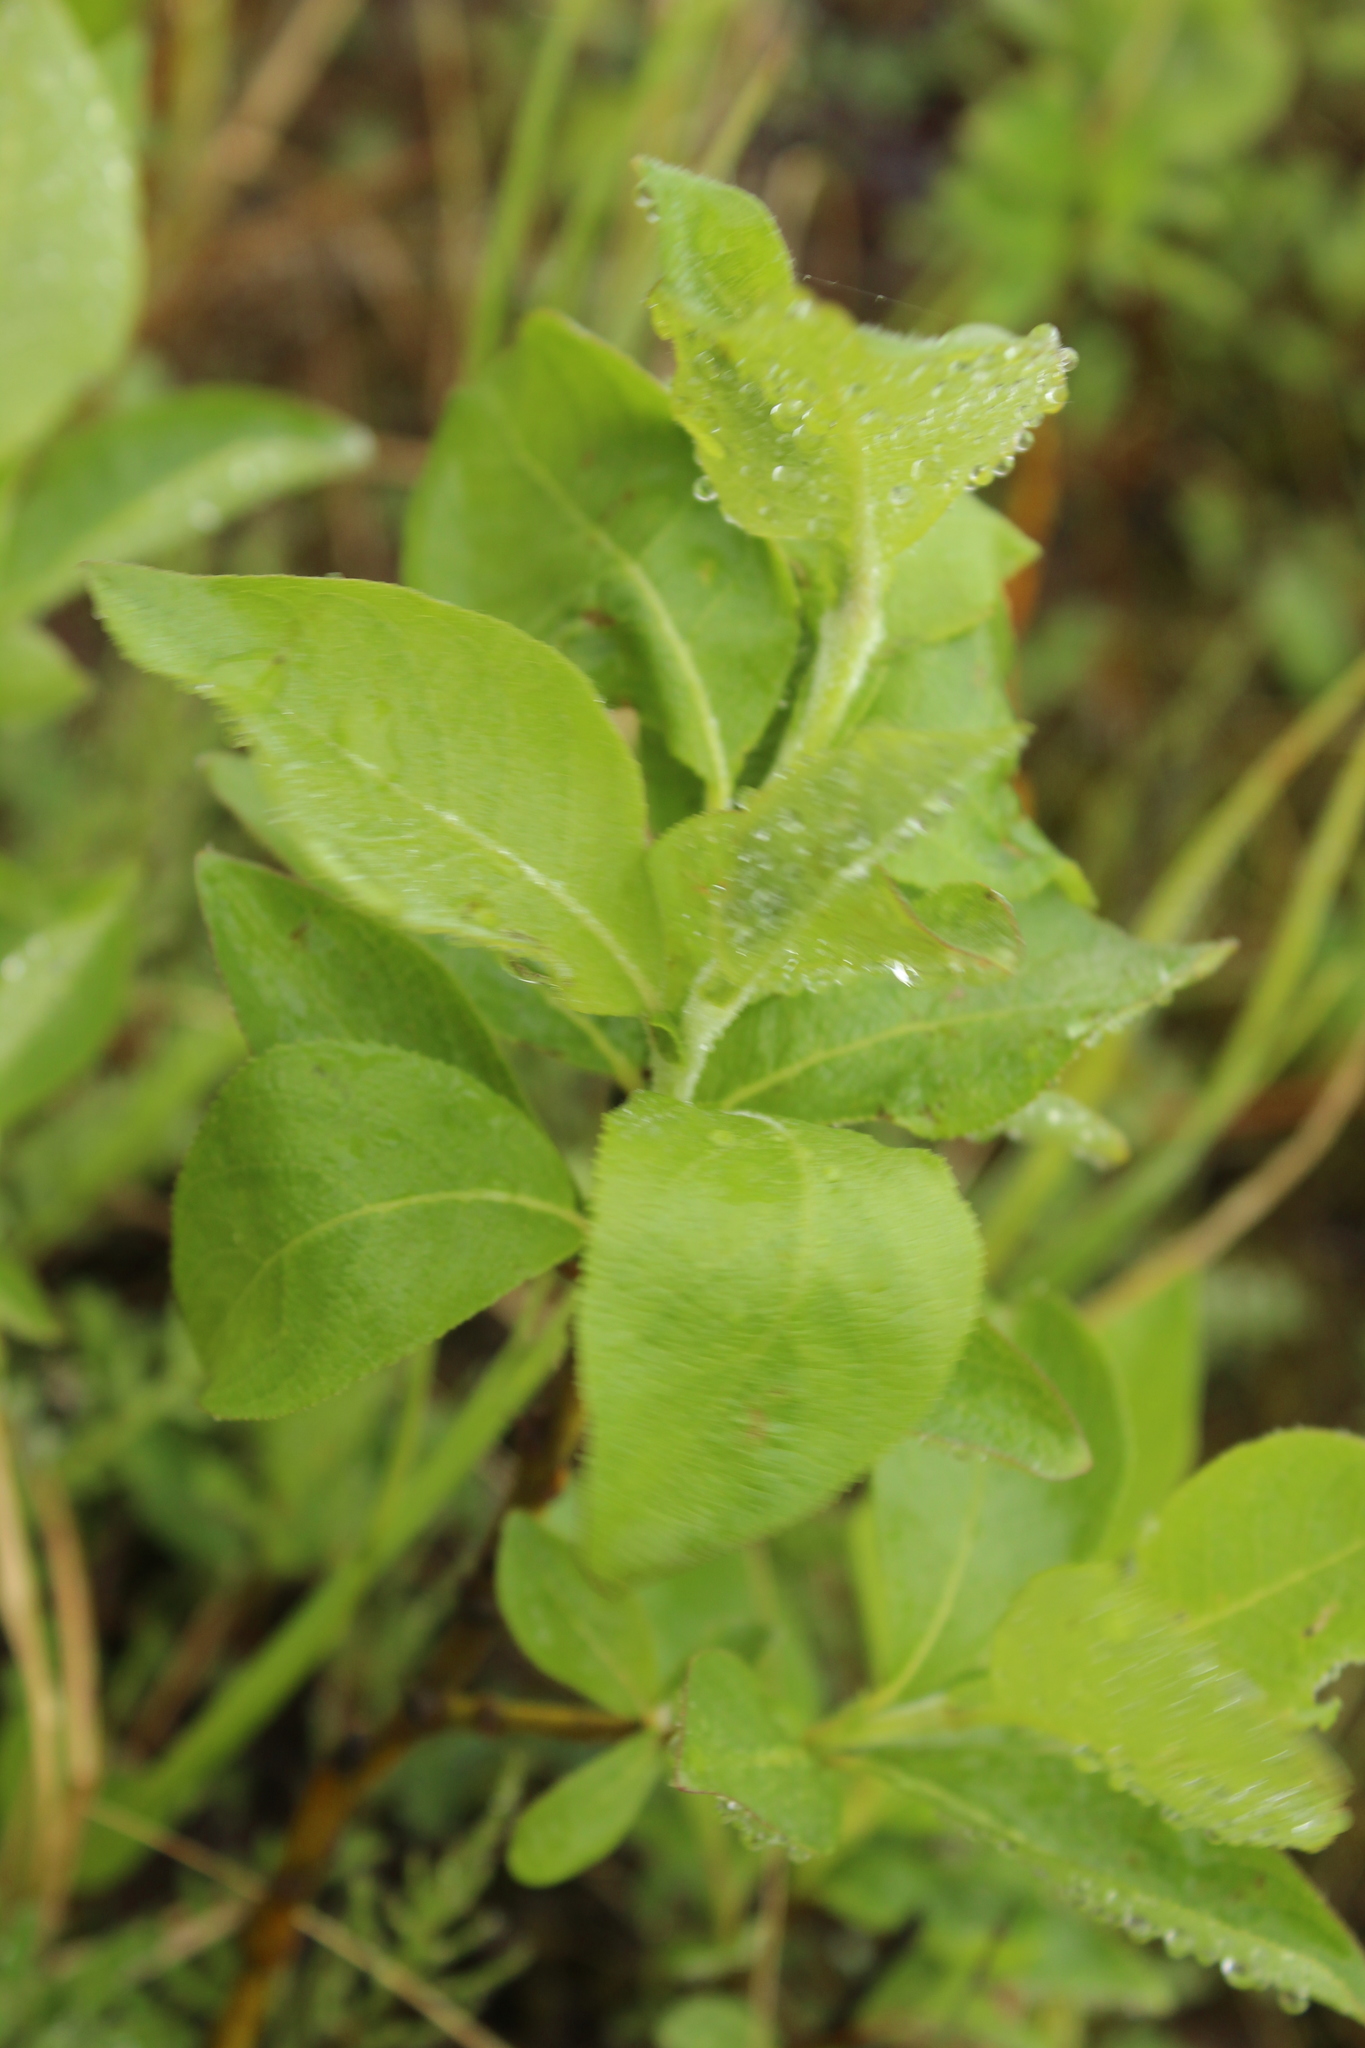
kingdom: Plantae
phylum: Tracheophyta
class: Magnoliopsida
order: Malpighiales
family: Salicaceae
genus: Salix
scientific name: Salix lanata
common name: Woolly willow
